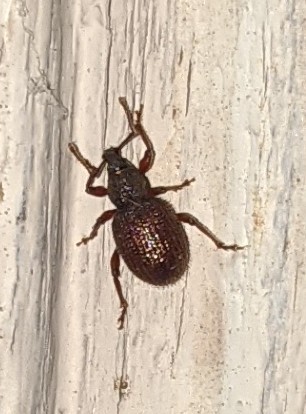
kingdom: Animalia
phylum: Arthropoda
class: Insecta
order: Coleoptera
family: Curculionidae
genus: Otiorhynchus
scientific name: Otiorhynchus rugosostriatus
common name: Weevil
